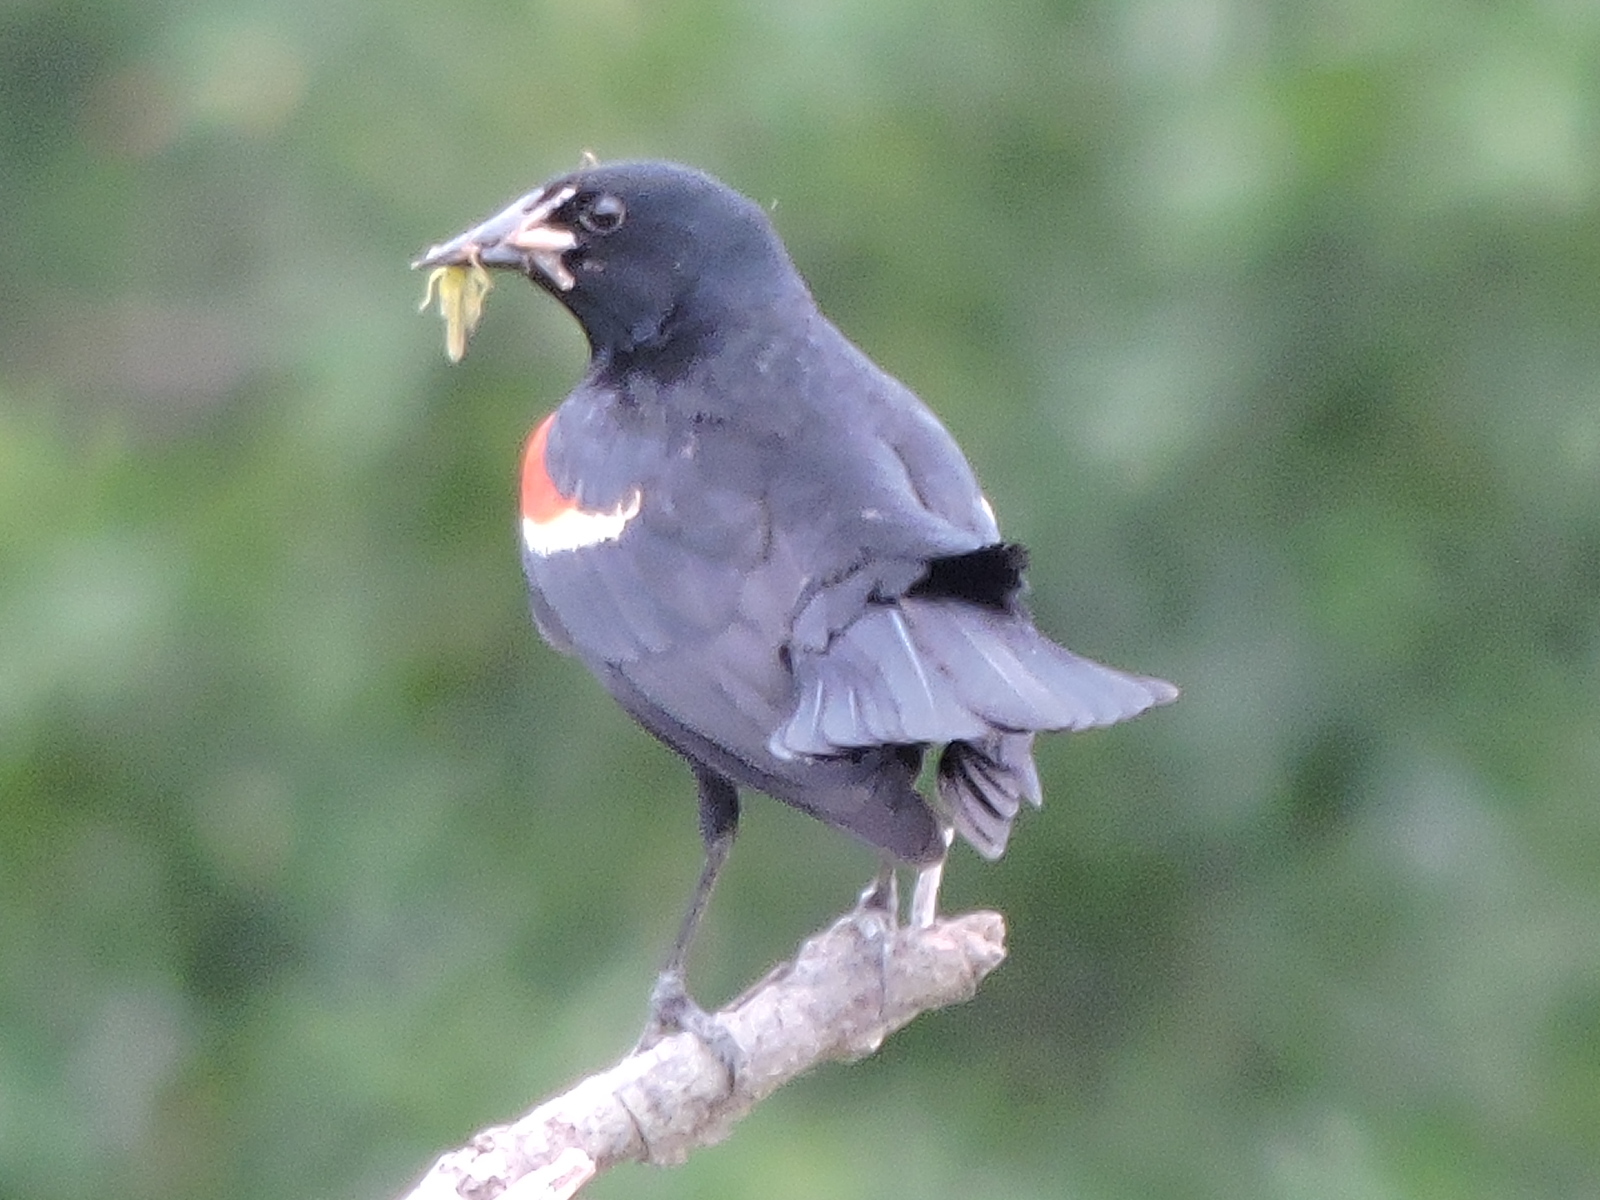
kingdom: Animalia
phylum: Chordata
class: Aves
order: Passeriformes
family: Icteridae
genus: Agelaius
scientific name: Agelaius phoeniceus
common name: Red-winged blackbird
